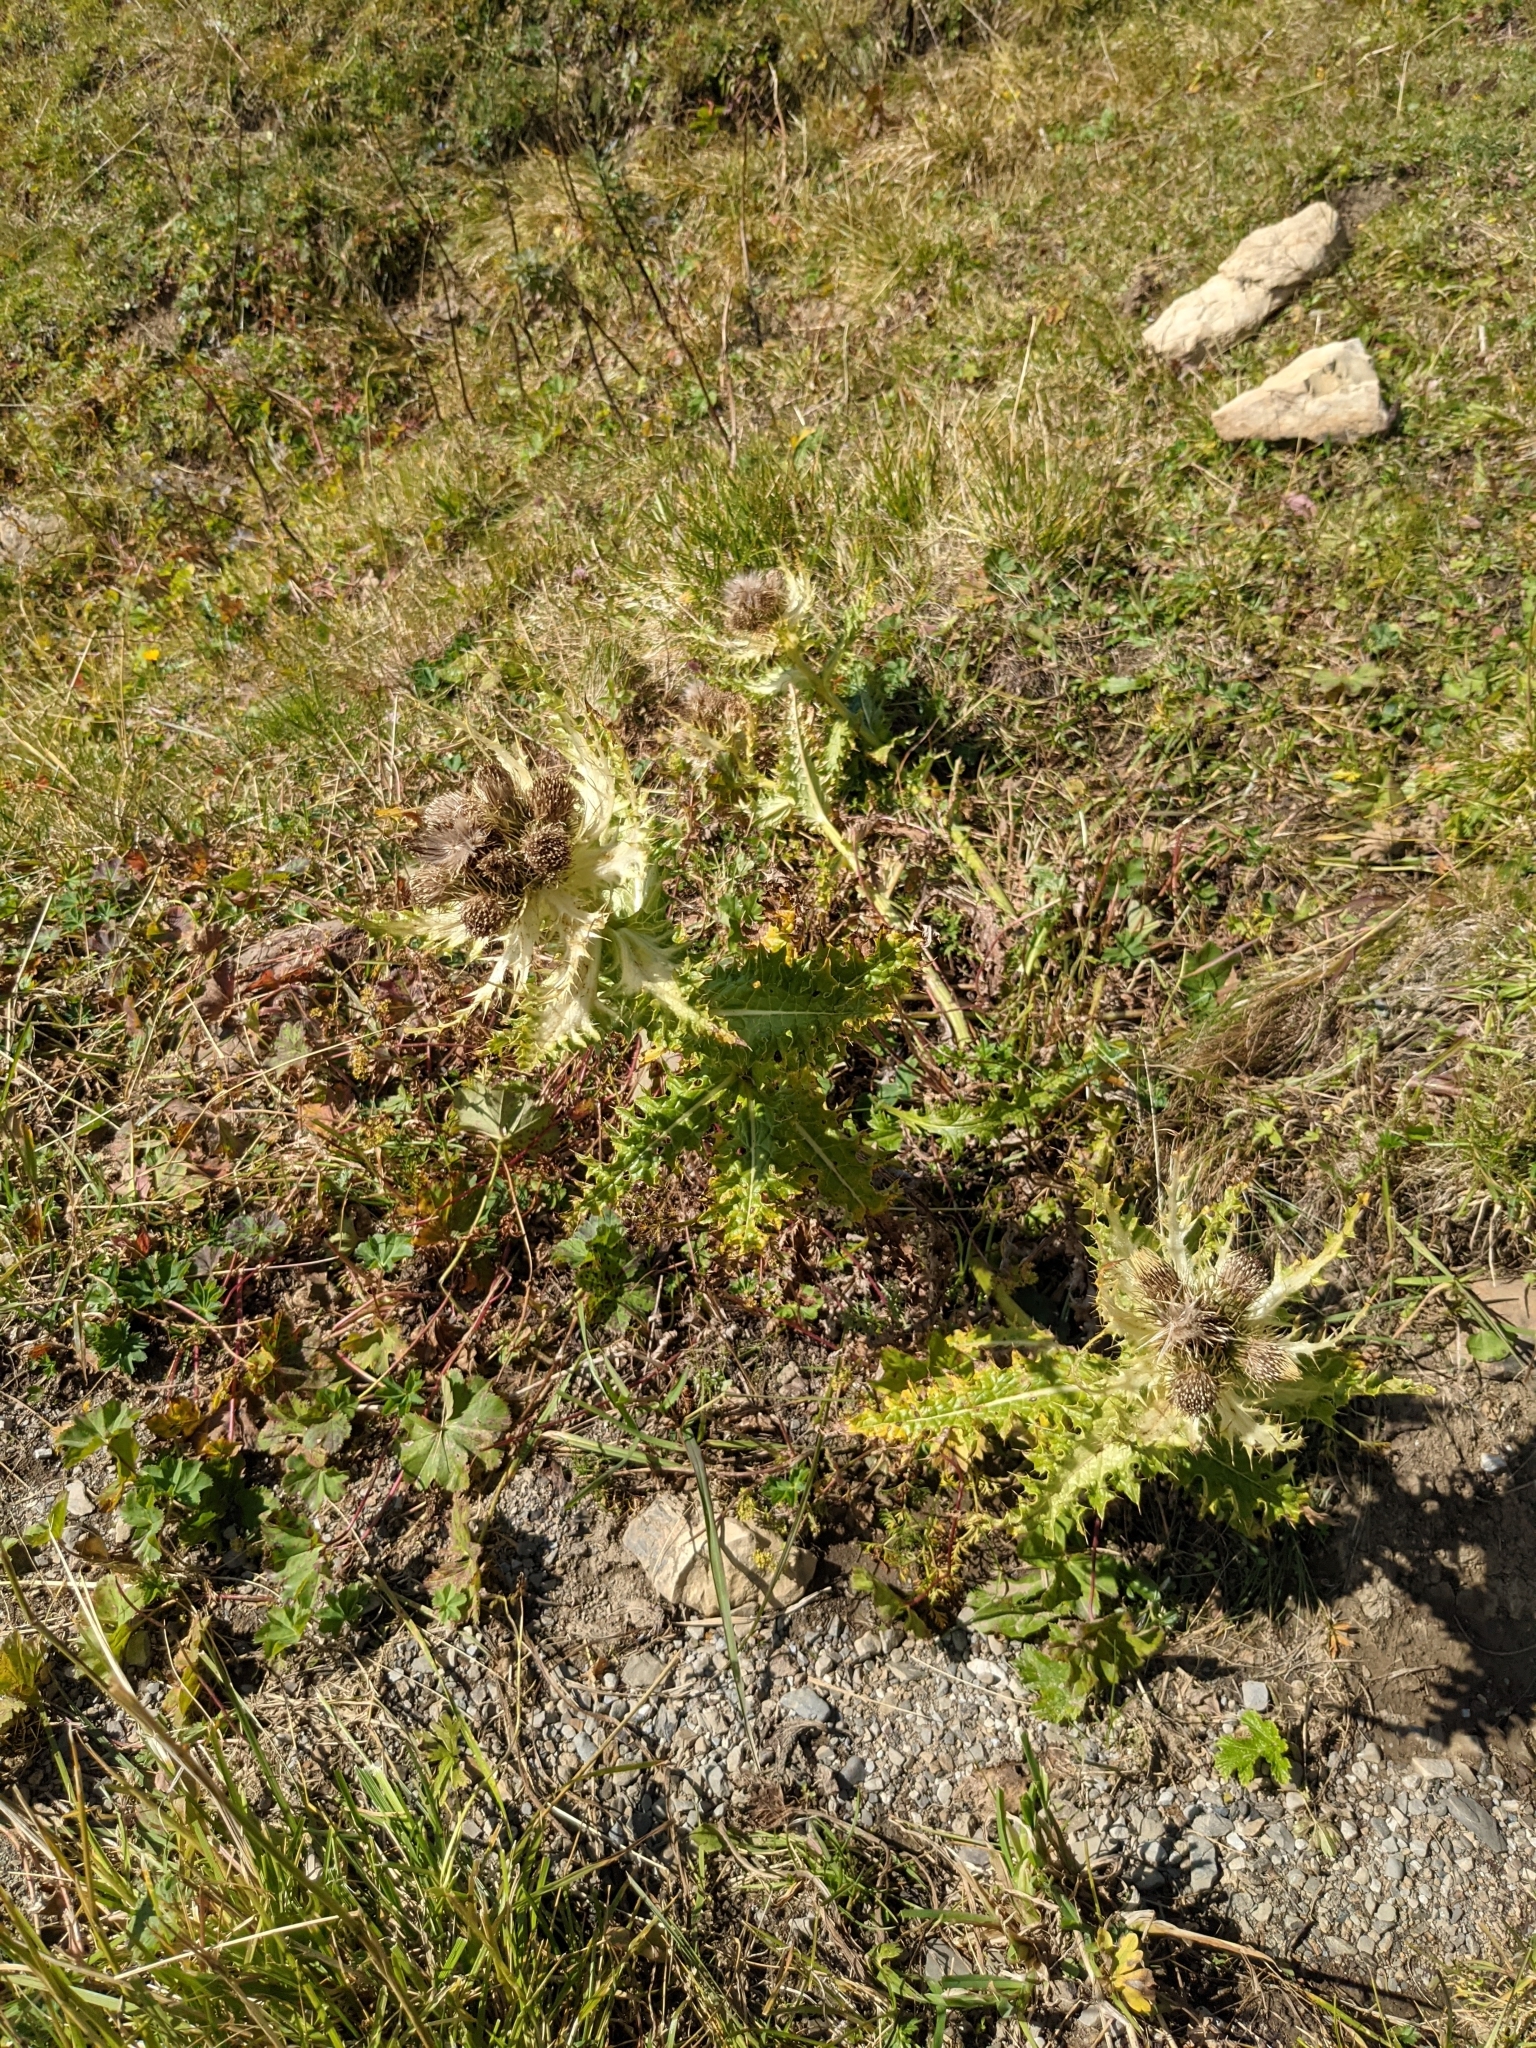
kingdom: Plantae
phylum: Tracheophyta
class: Magnoliopsida
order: Asterales
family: Asteraceae
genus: Cirsium
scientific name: Cirsium spinosissimum
